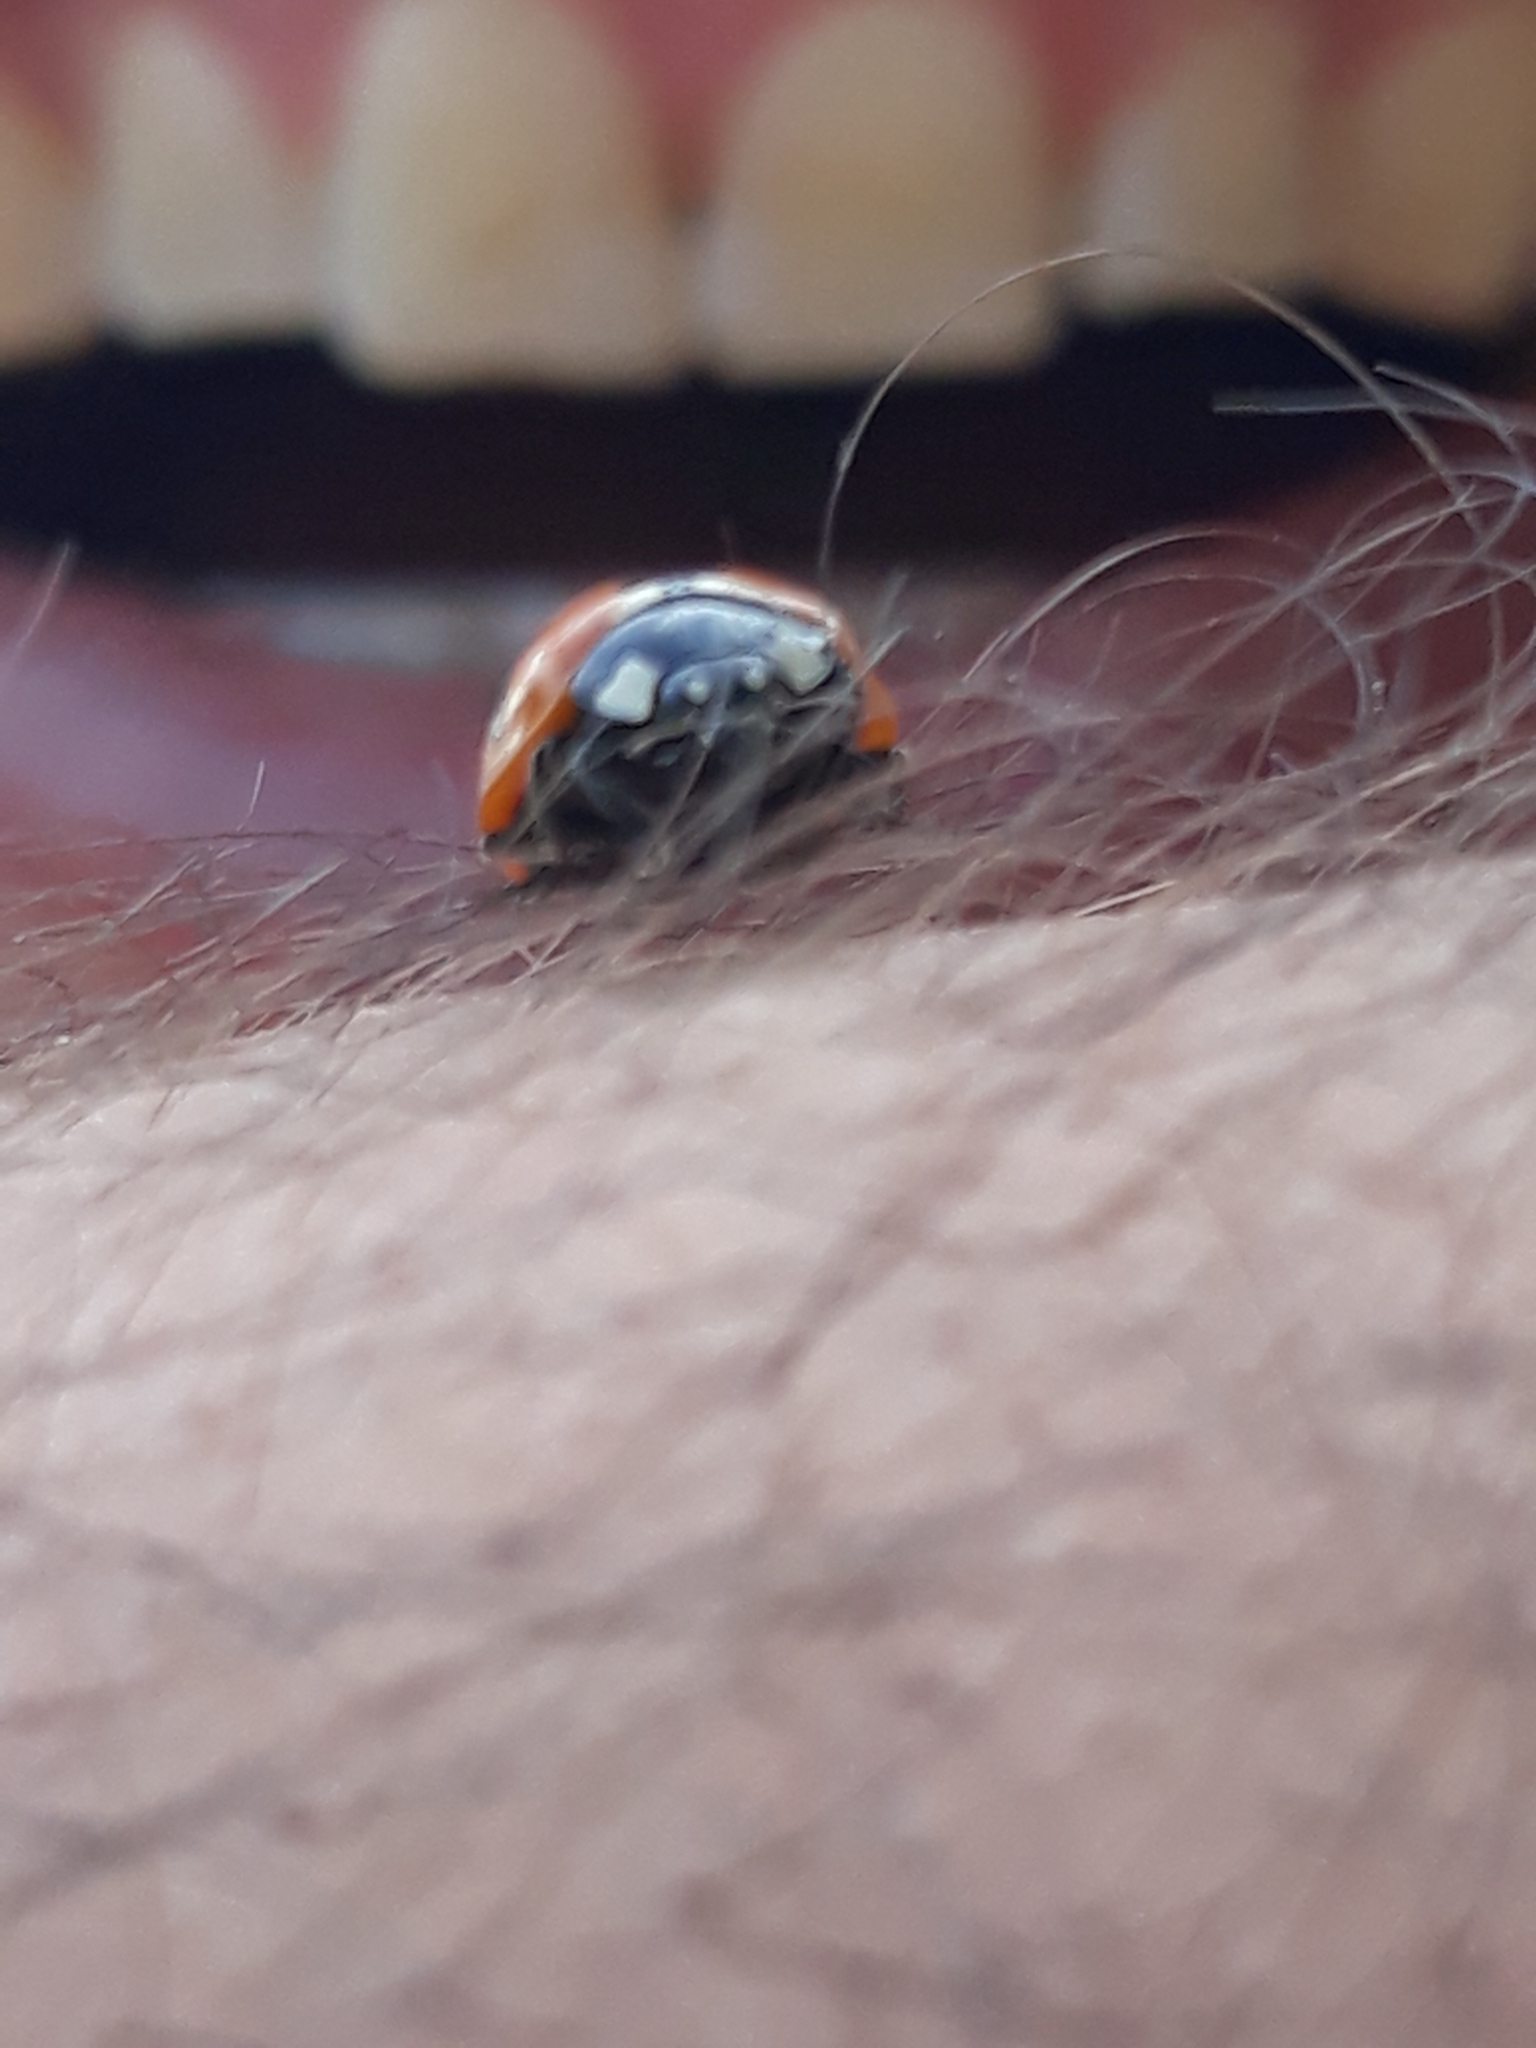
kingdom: Animalia
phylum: Arthropoda
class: Insecta
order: Coleoptera
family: Coccinellidae
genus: Coccinella
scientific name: Coccinella algerica
